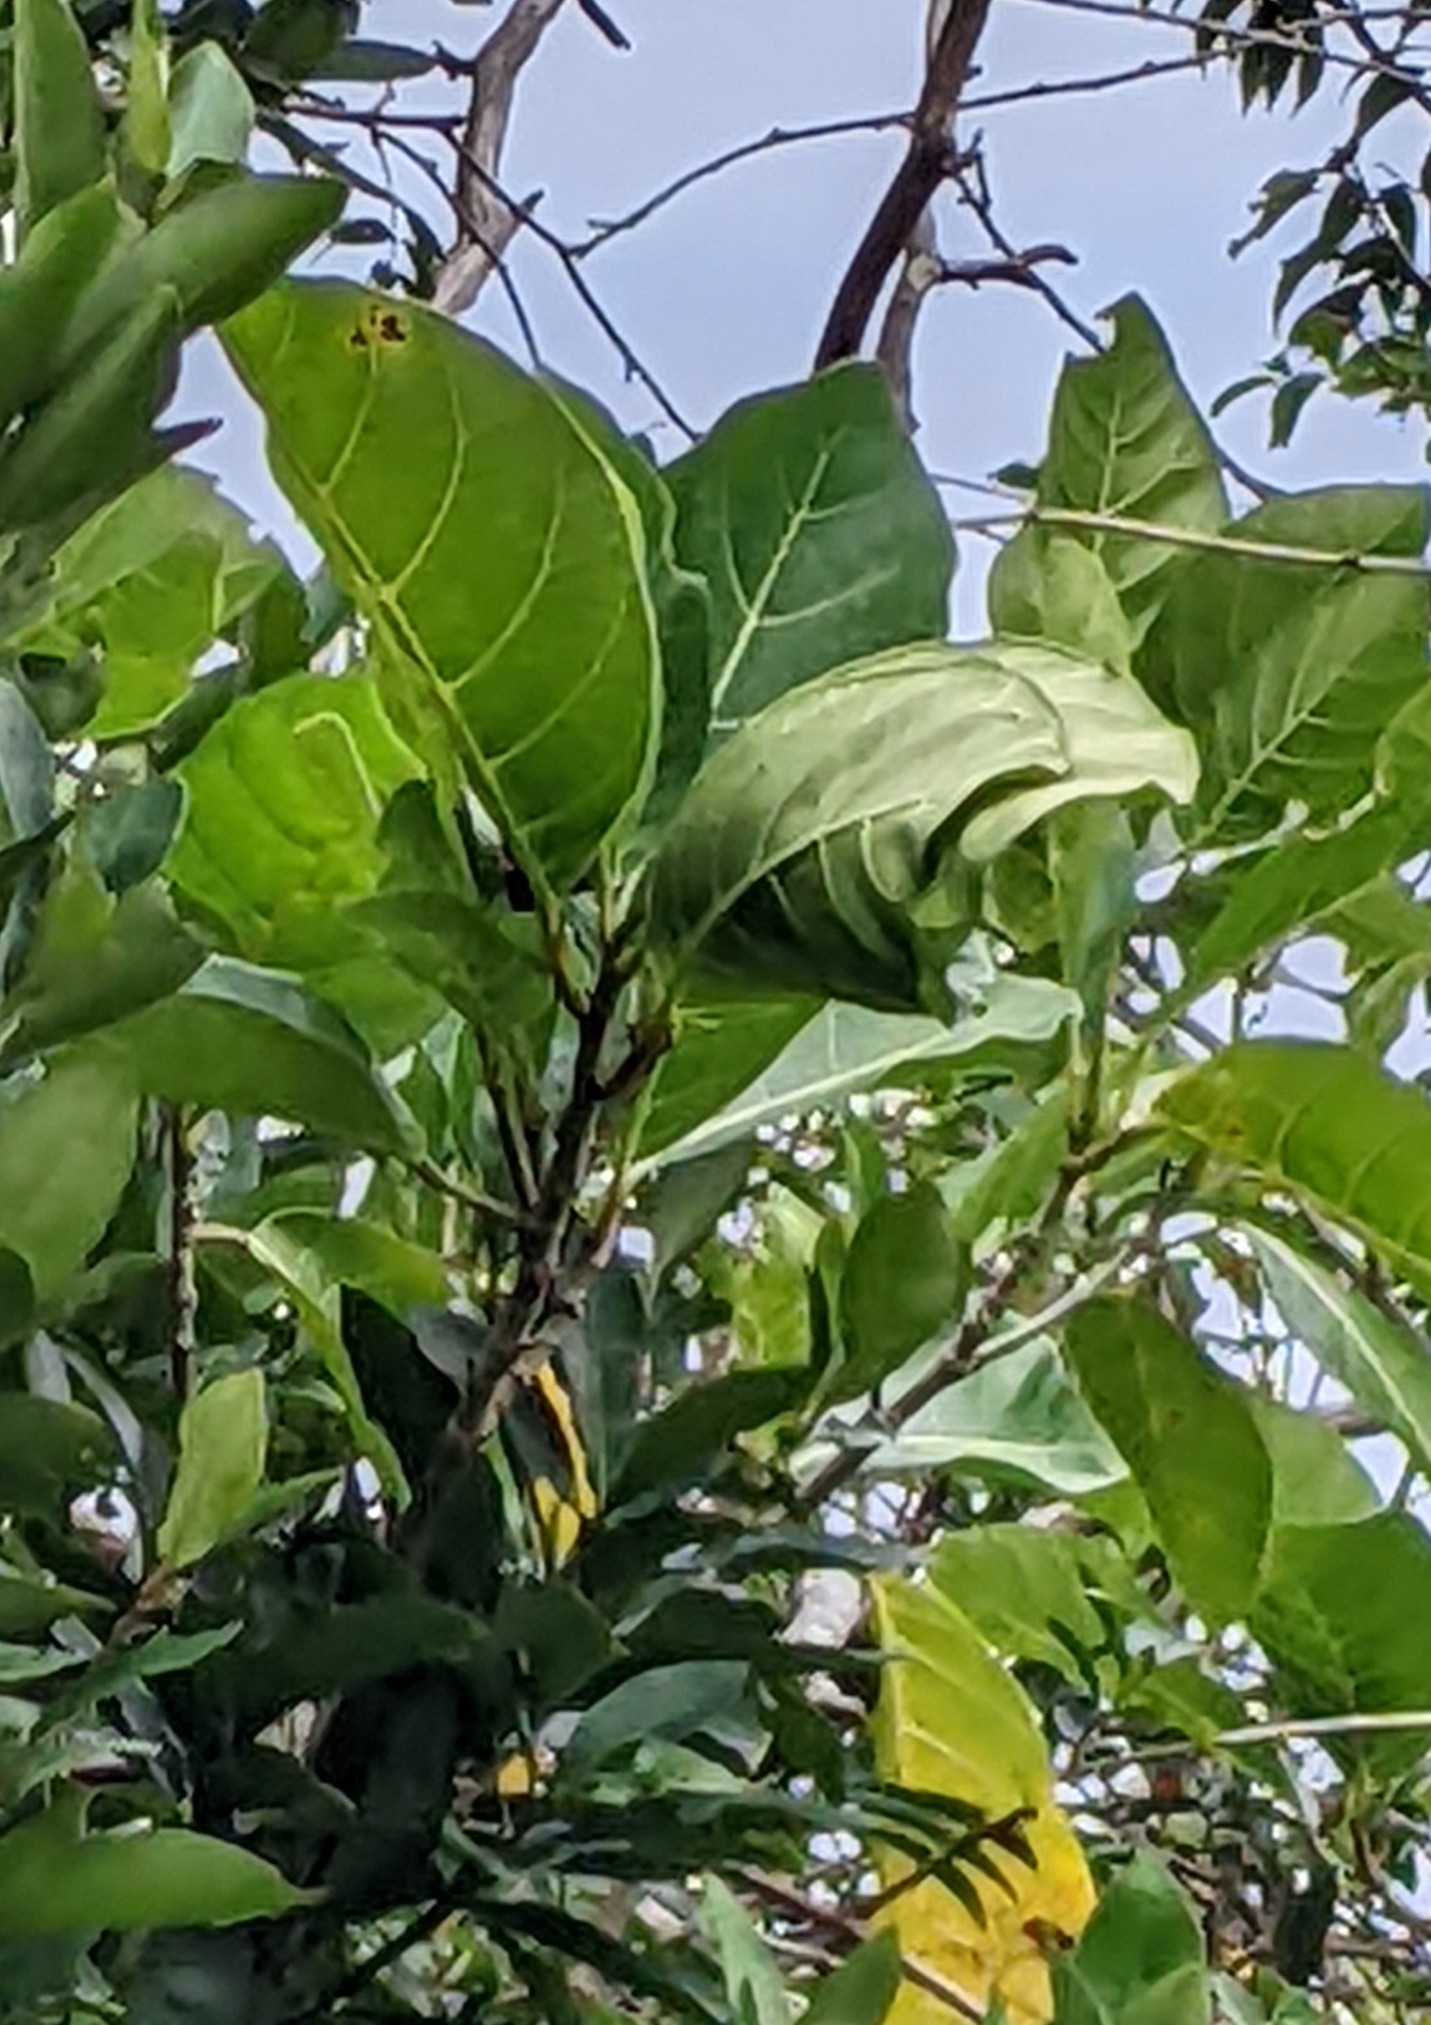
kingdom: Plantae
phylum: Tracheophyta
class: Magnoliopsida
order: Rosales
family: Moraceae
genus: Ficus
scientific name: Ficus septica
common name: Septic fig
